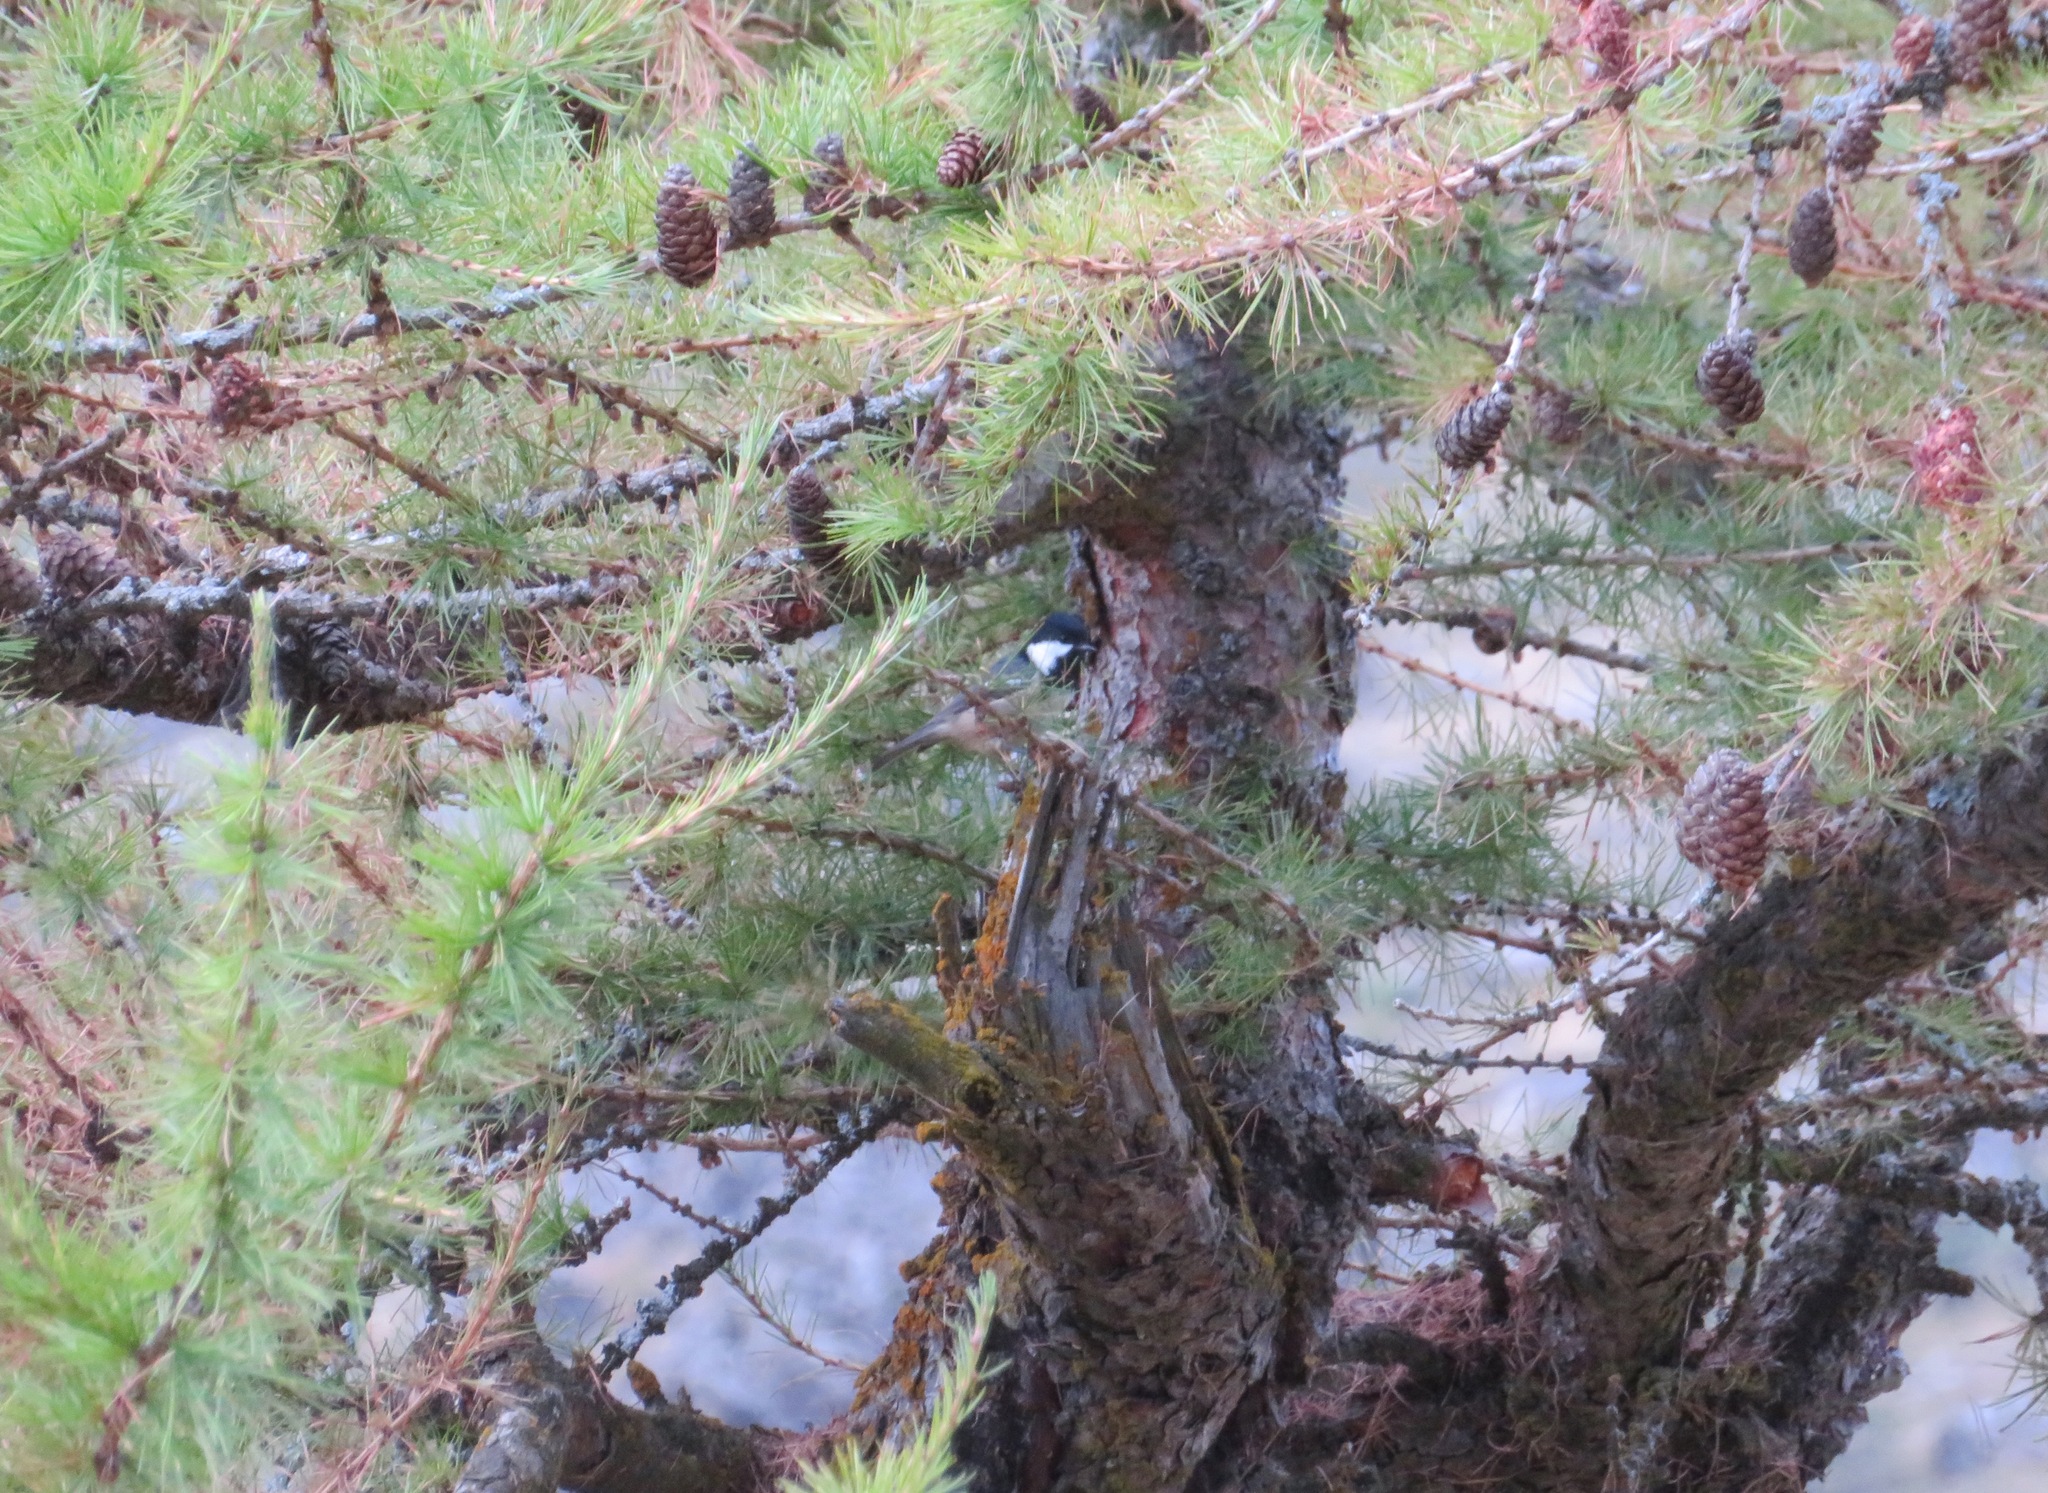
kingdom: Animalia
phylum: Chordata
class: Aves
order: Passeriformes
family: Paridae
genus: Periparus
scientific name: Periparus ater
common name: Coal tit
